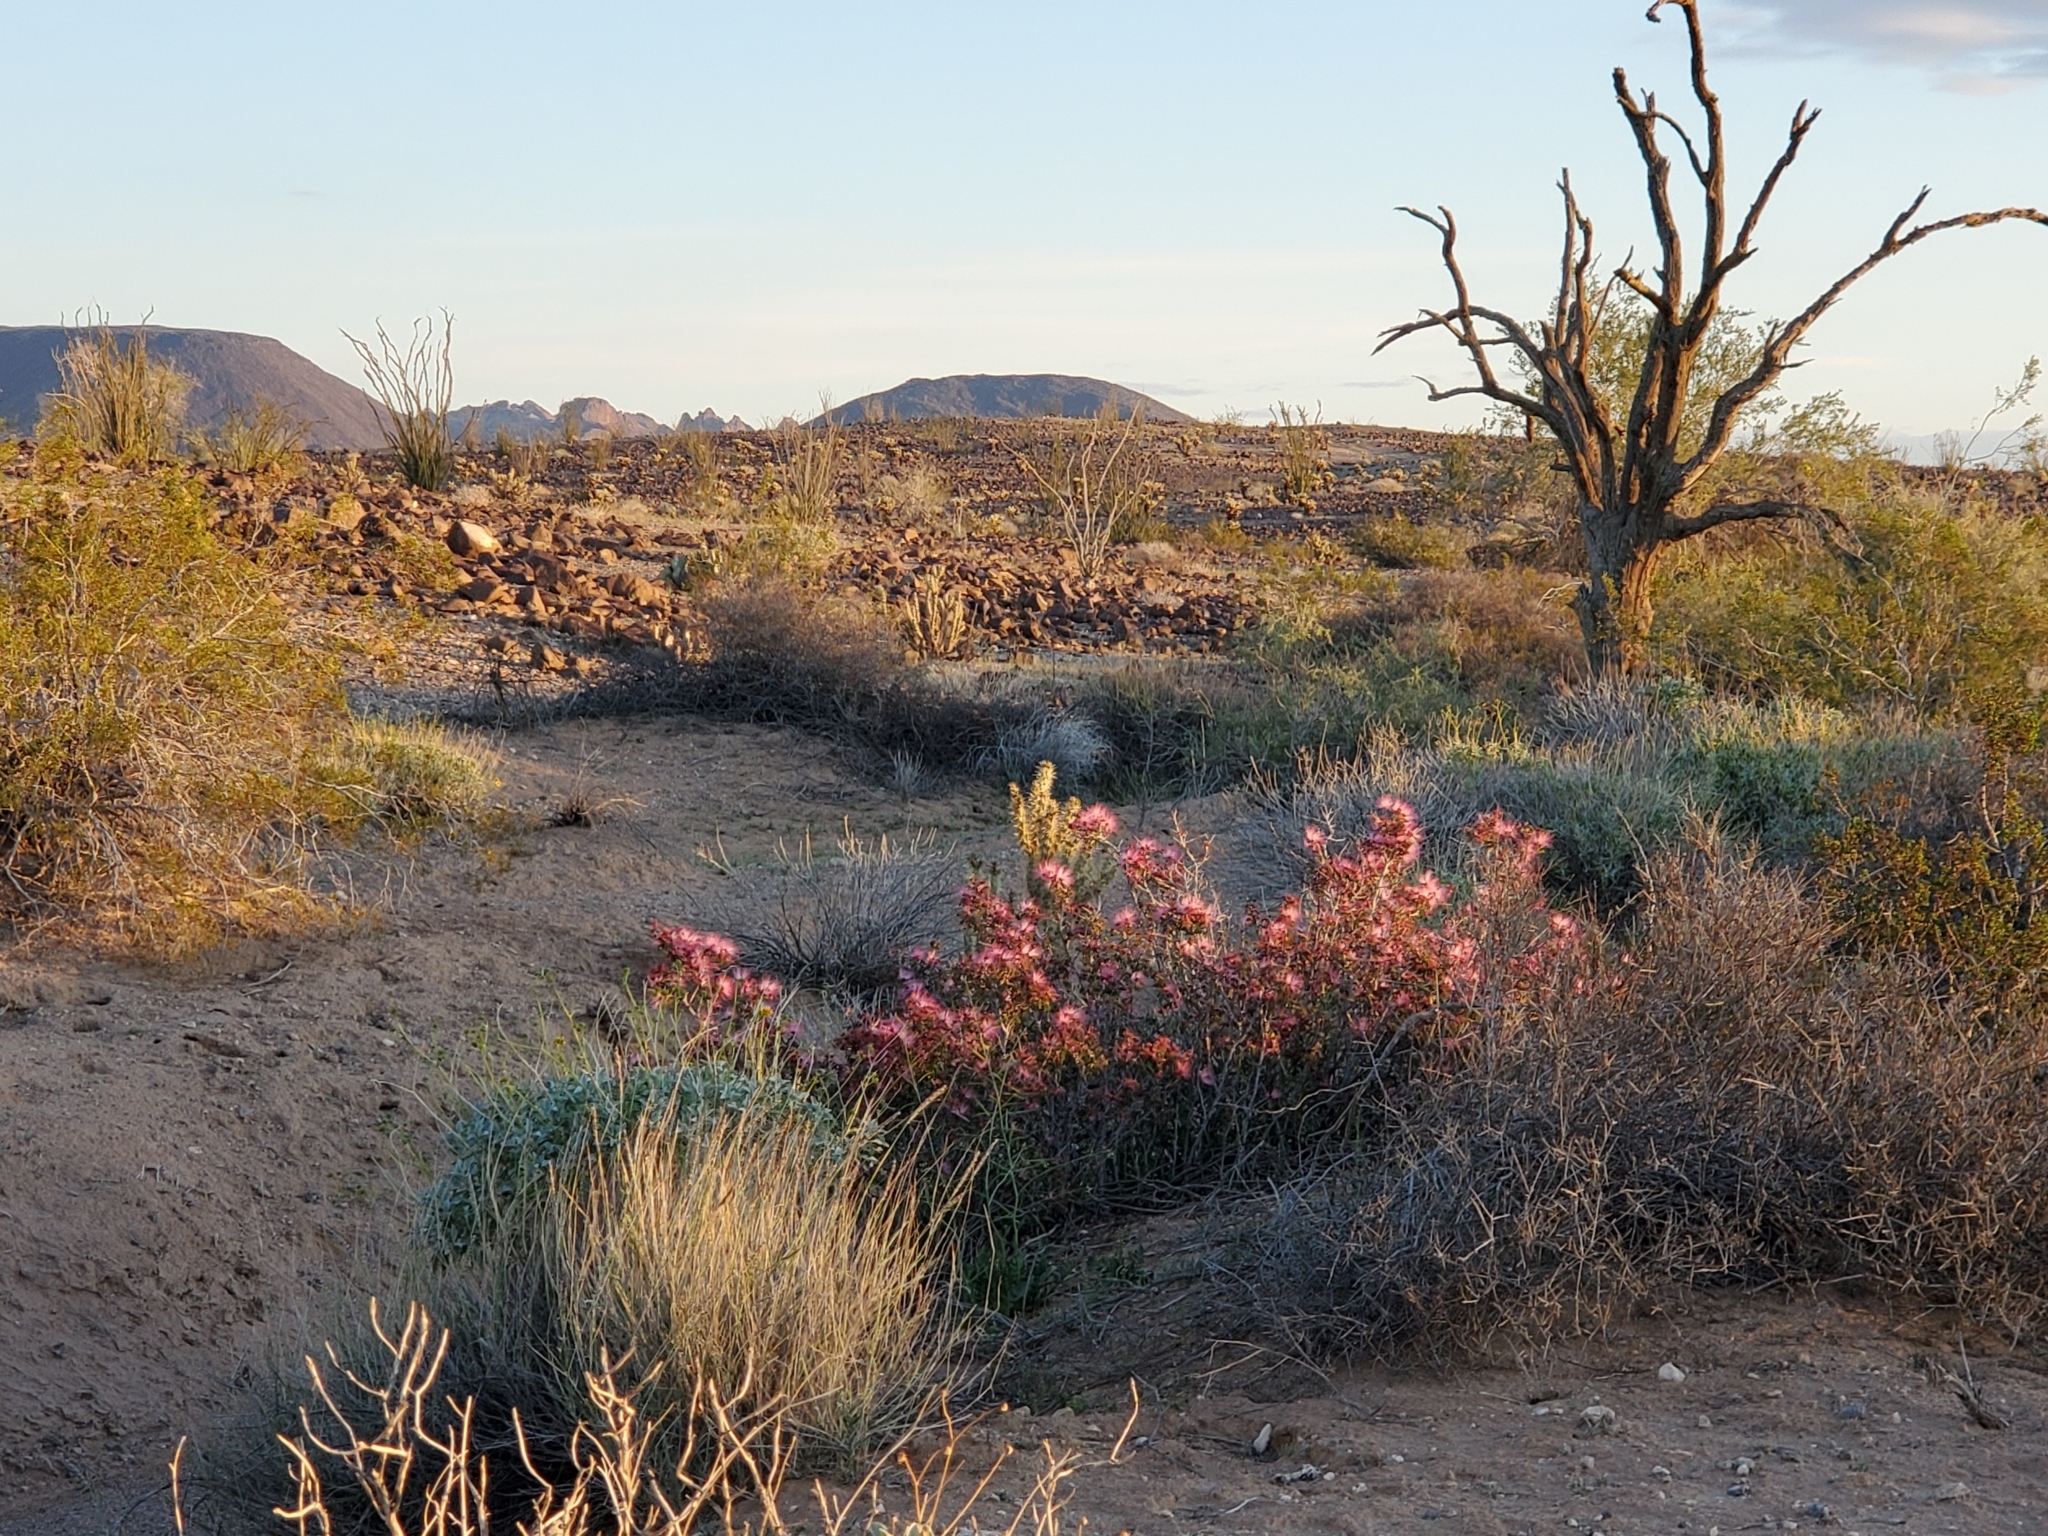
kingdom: Plantae
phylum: Tracheophyta
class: Magnoliopsida
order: Fabales
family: Fabaceae
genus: Calliandra
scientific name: Calliandra eriophylla
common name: Fairy-duster
